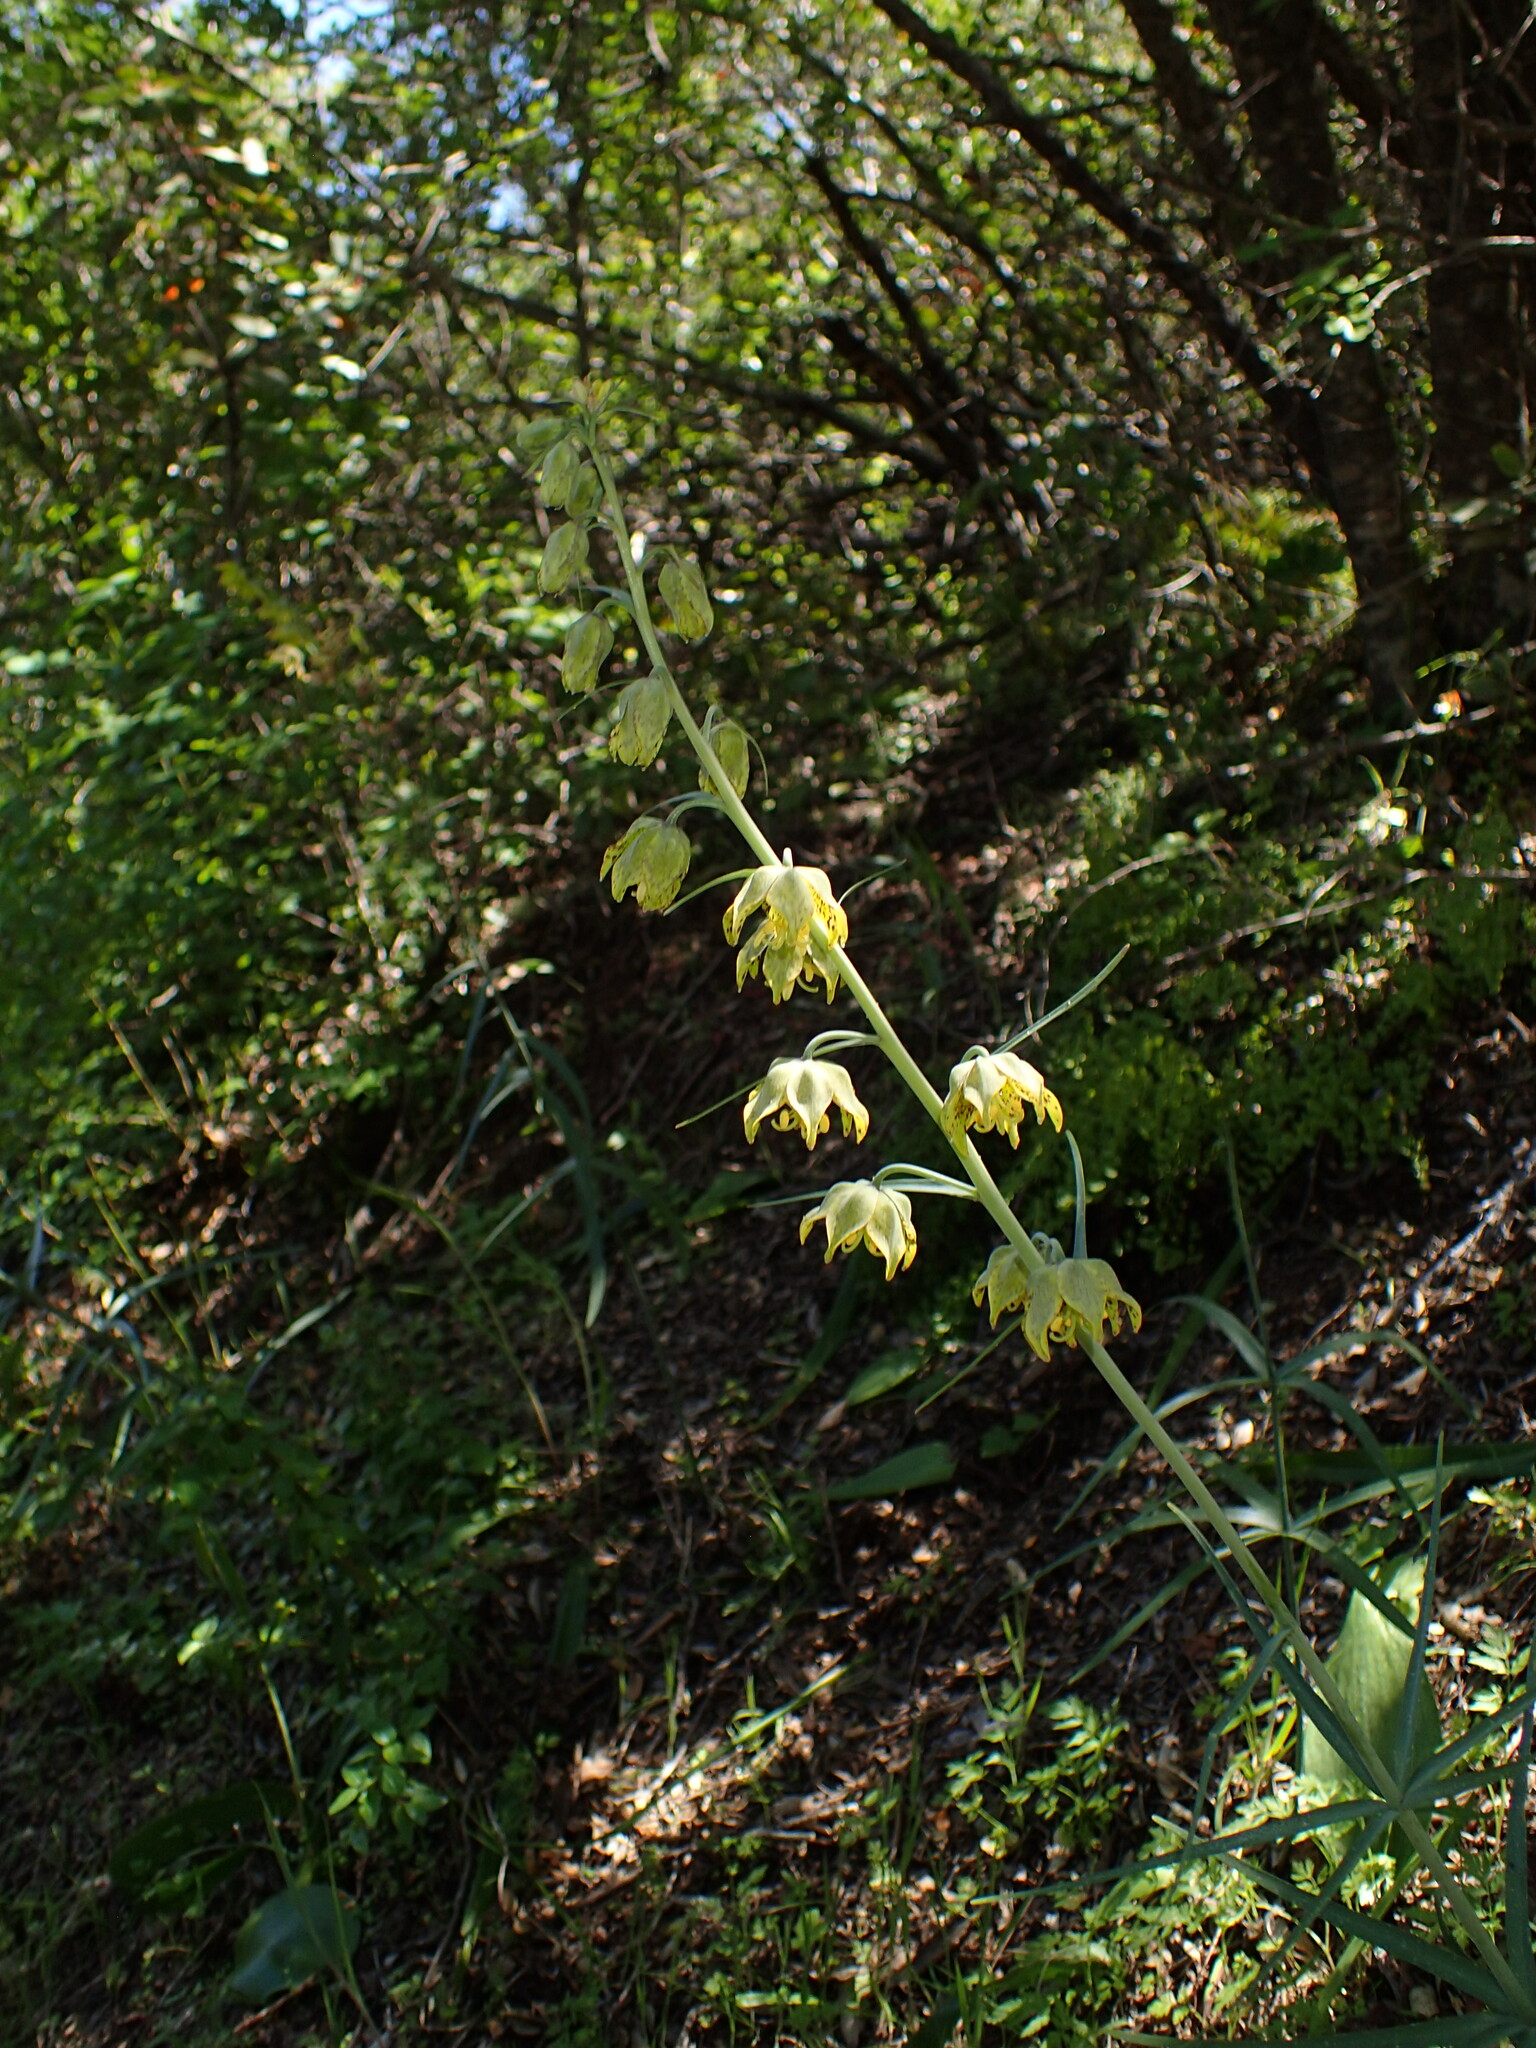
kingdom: Plantae
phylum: Tracheophyta
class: Liliopsida
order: Liliales
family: Liliaceae
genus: Fritillaria
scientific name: Fritillaria ojaiensis
